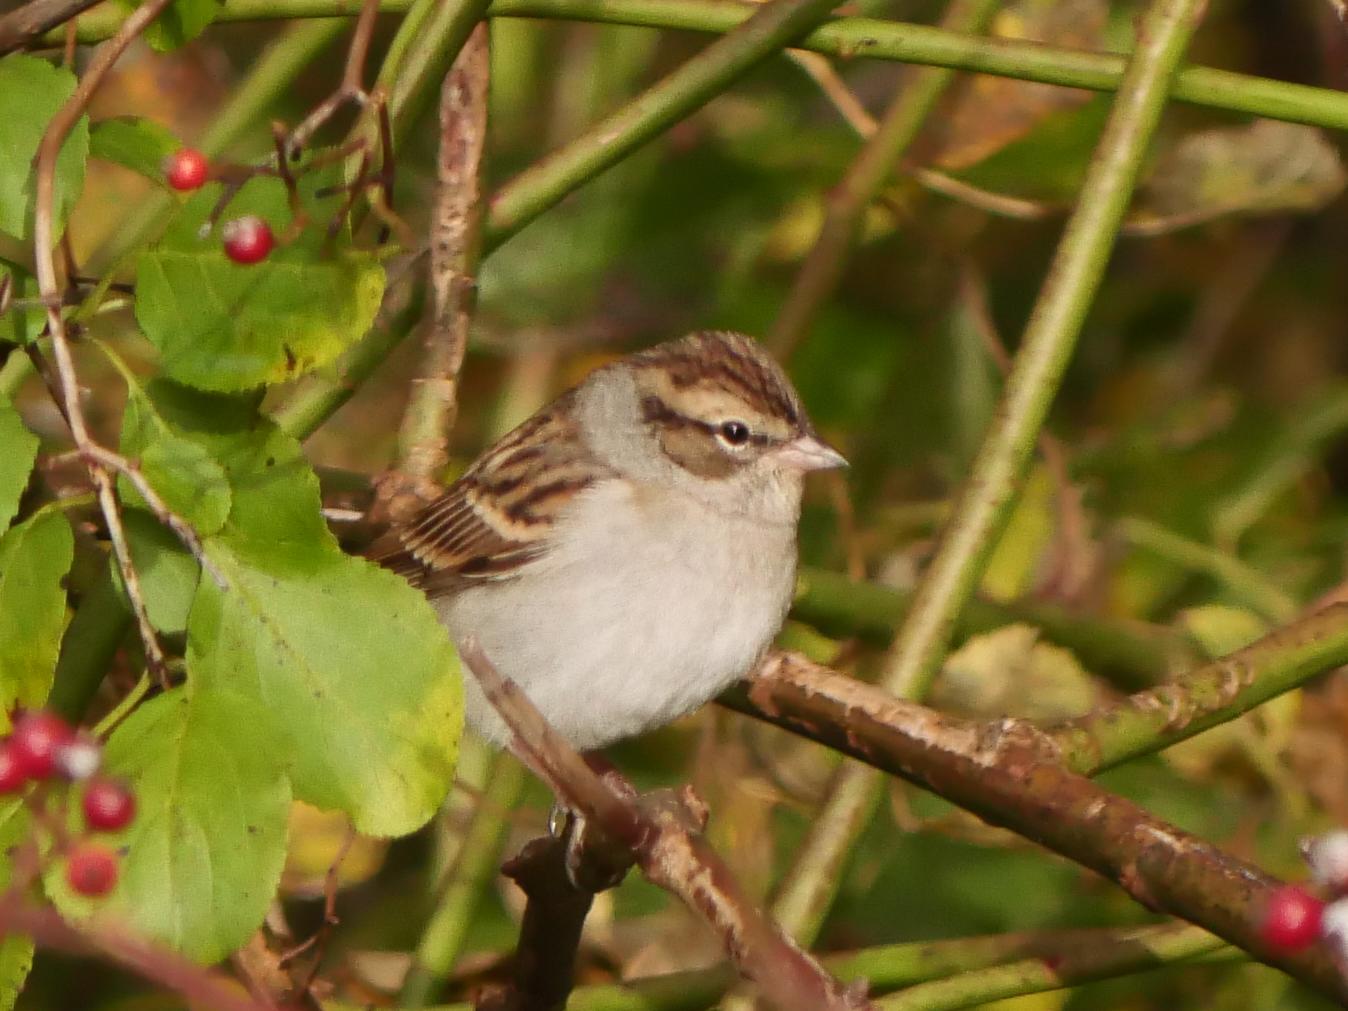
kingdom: Animalia
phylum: Chordata
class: Aves
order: Passeriformes
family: Passerellidae
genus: Spizella
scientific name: Spizella passerina
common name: Chipping sparrow
